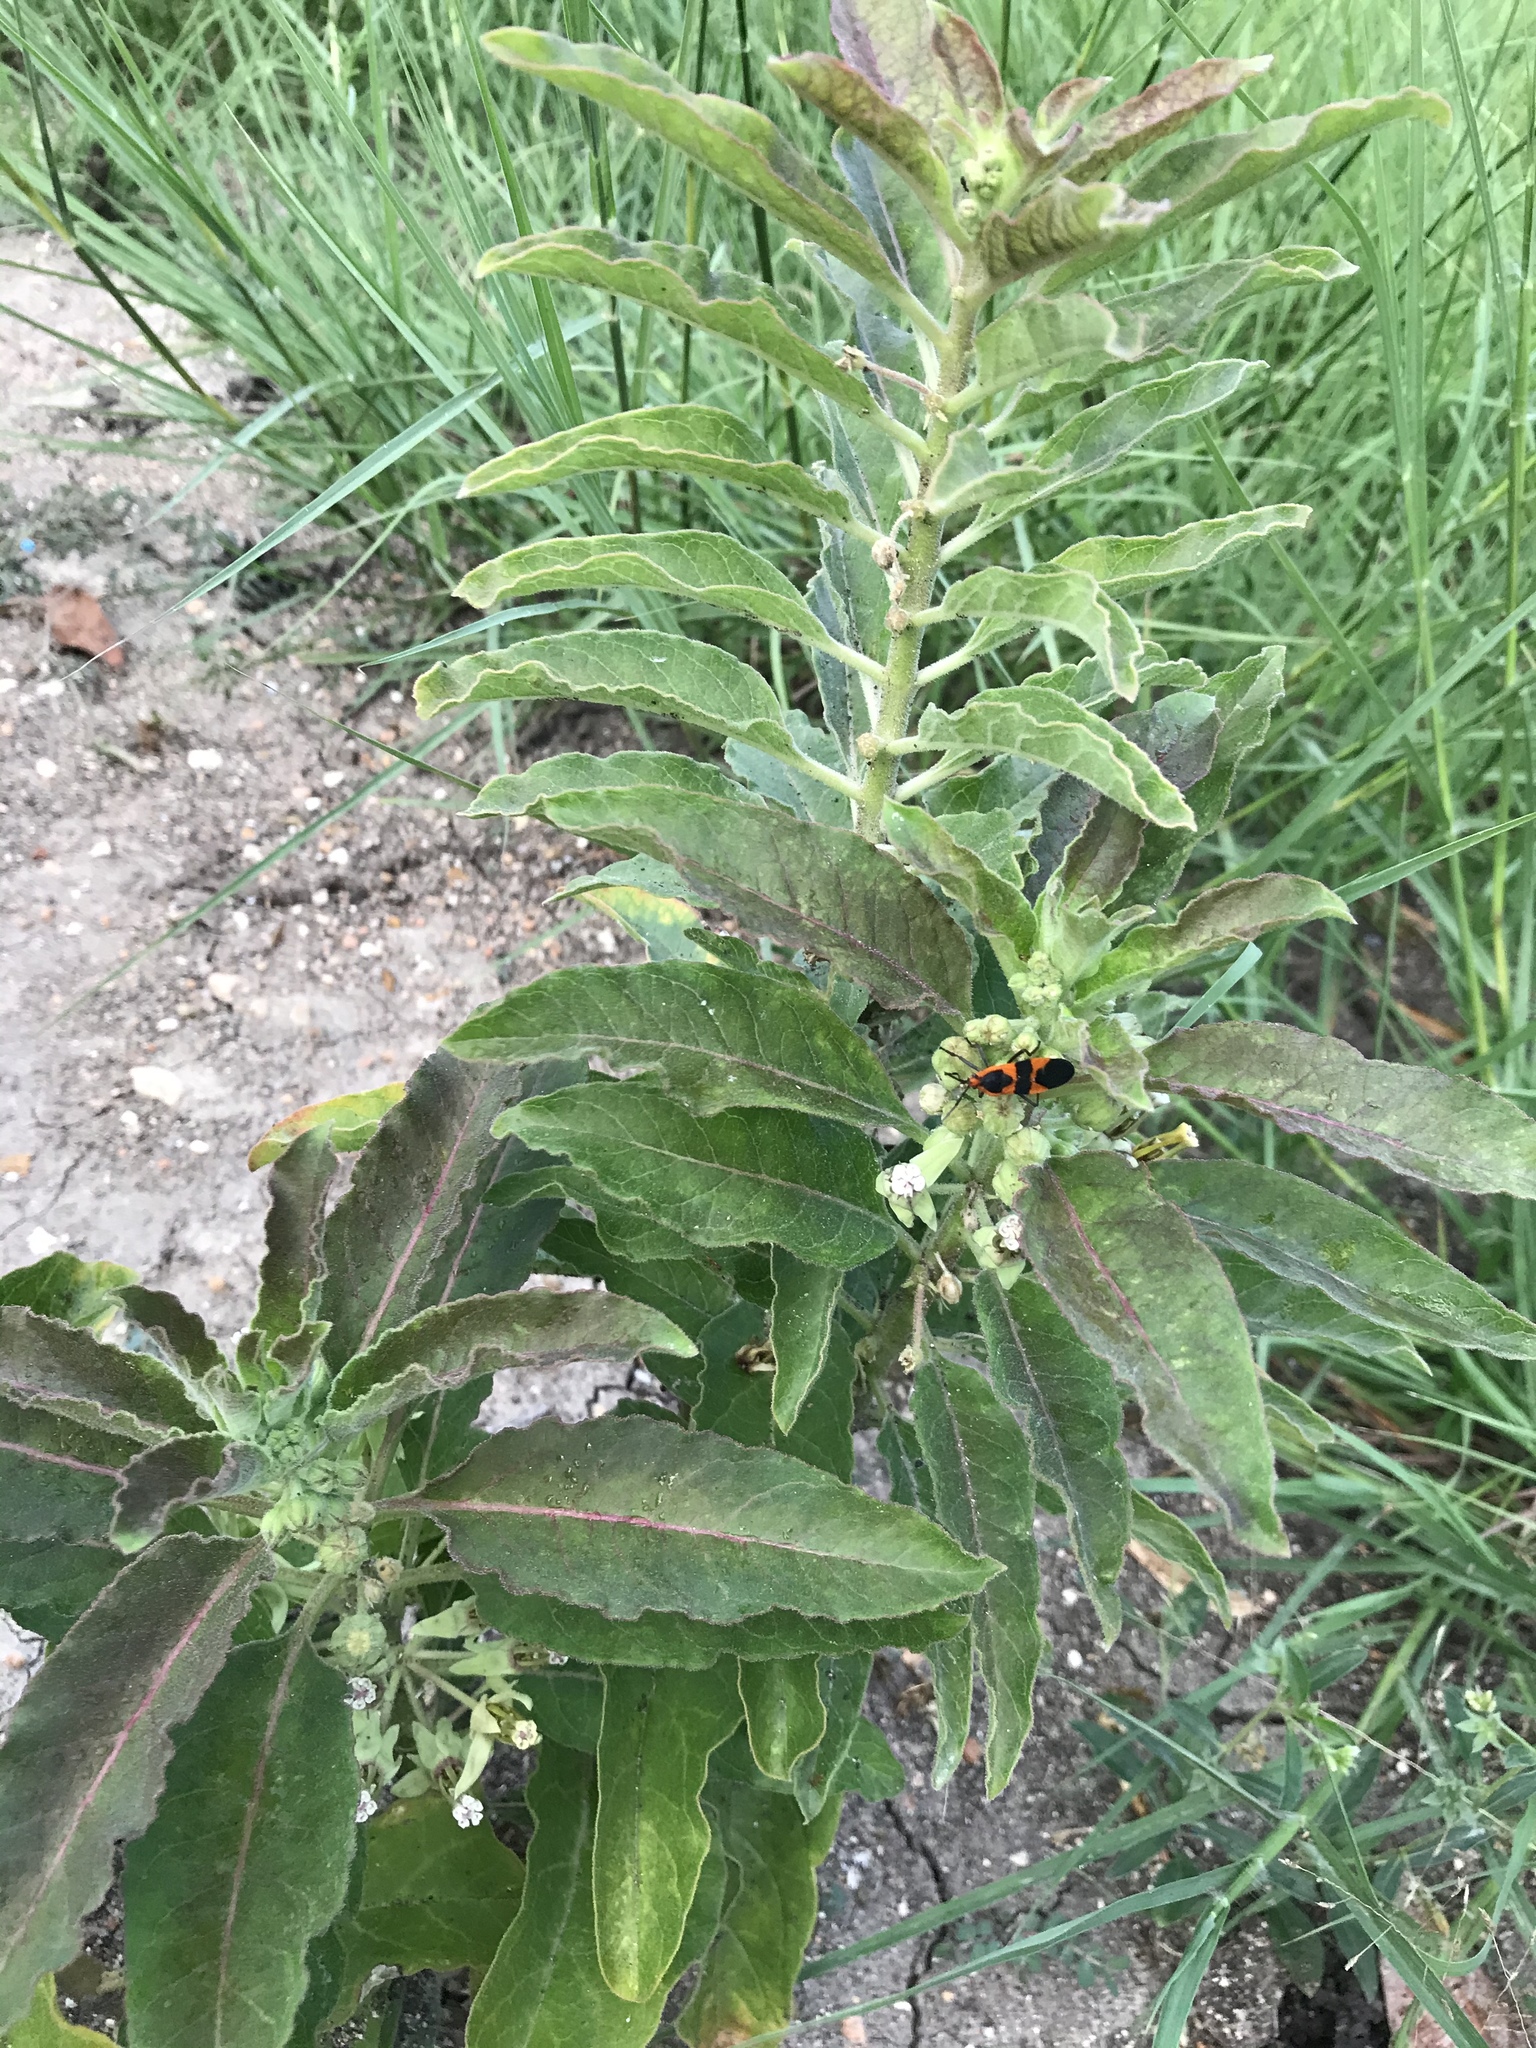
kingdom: Plantae
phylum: Tracheophyta
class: Magnoliopsida
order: Gentianales
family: Apocynaceae
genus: Asclepias
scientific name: Asclepias oenotheroides
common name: Zizotes milkweed
